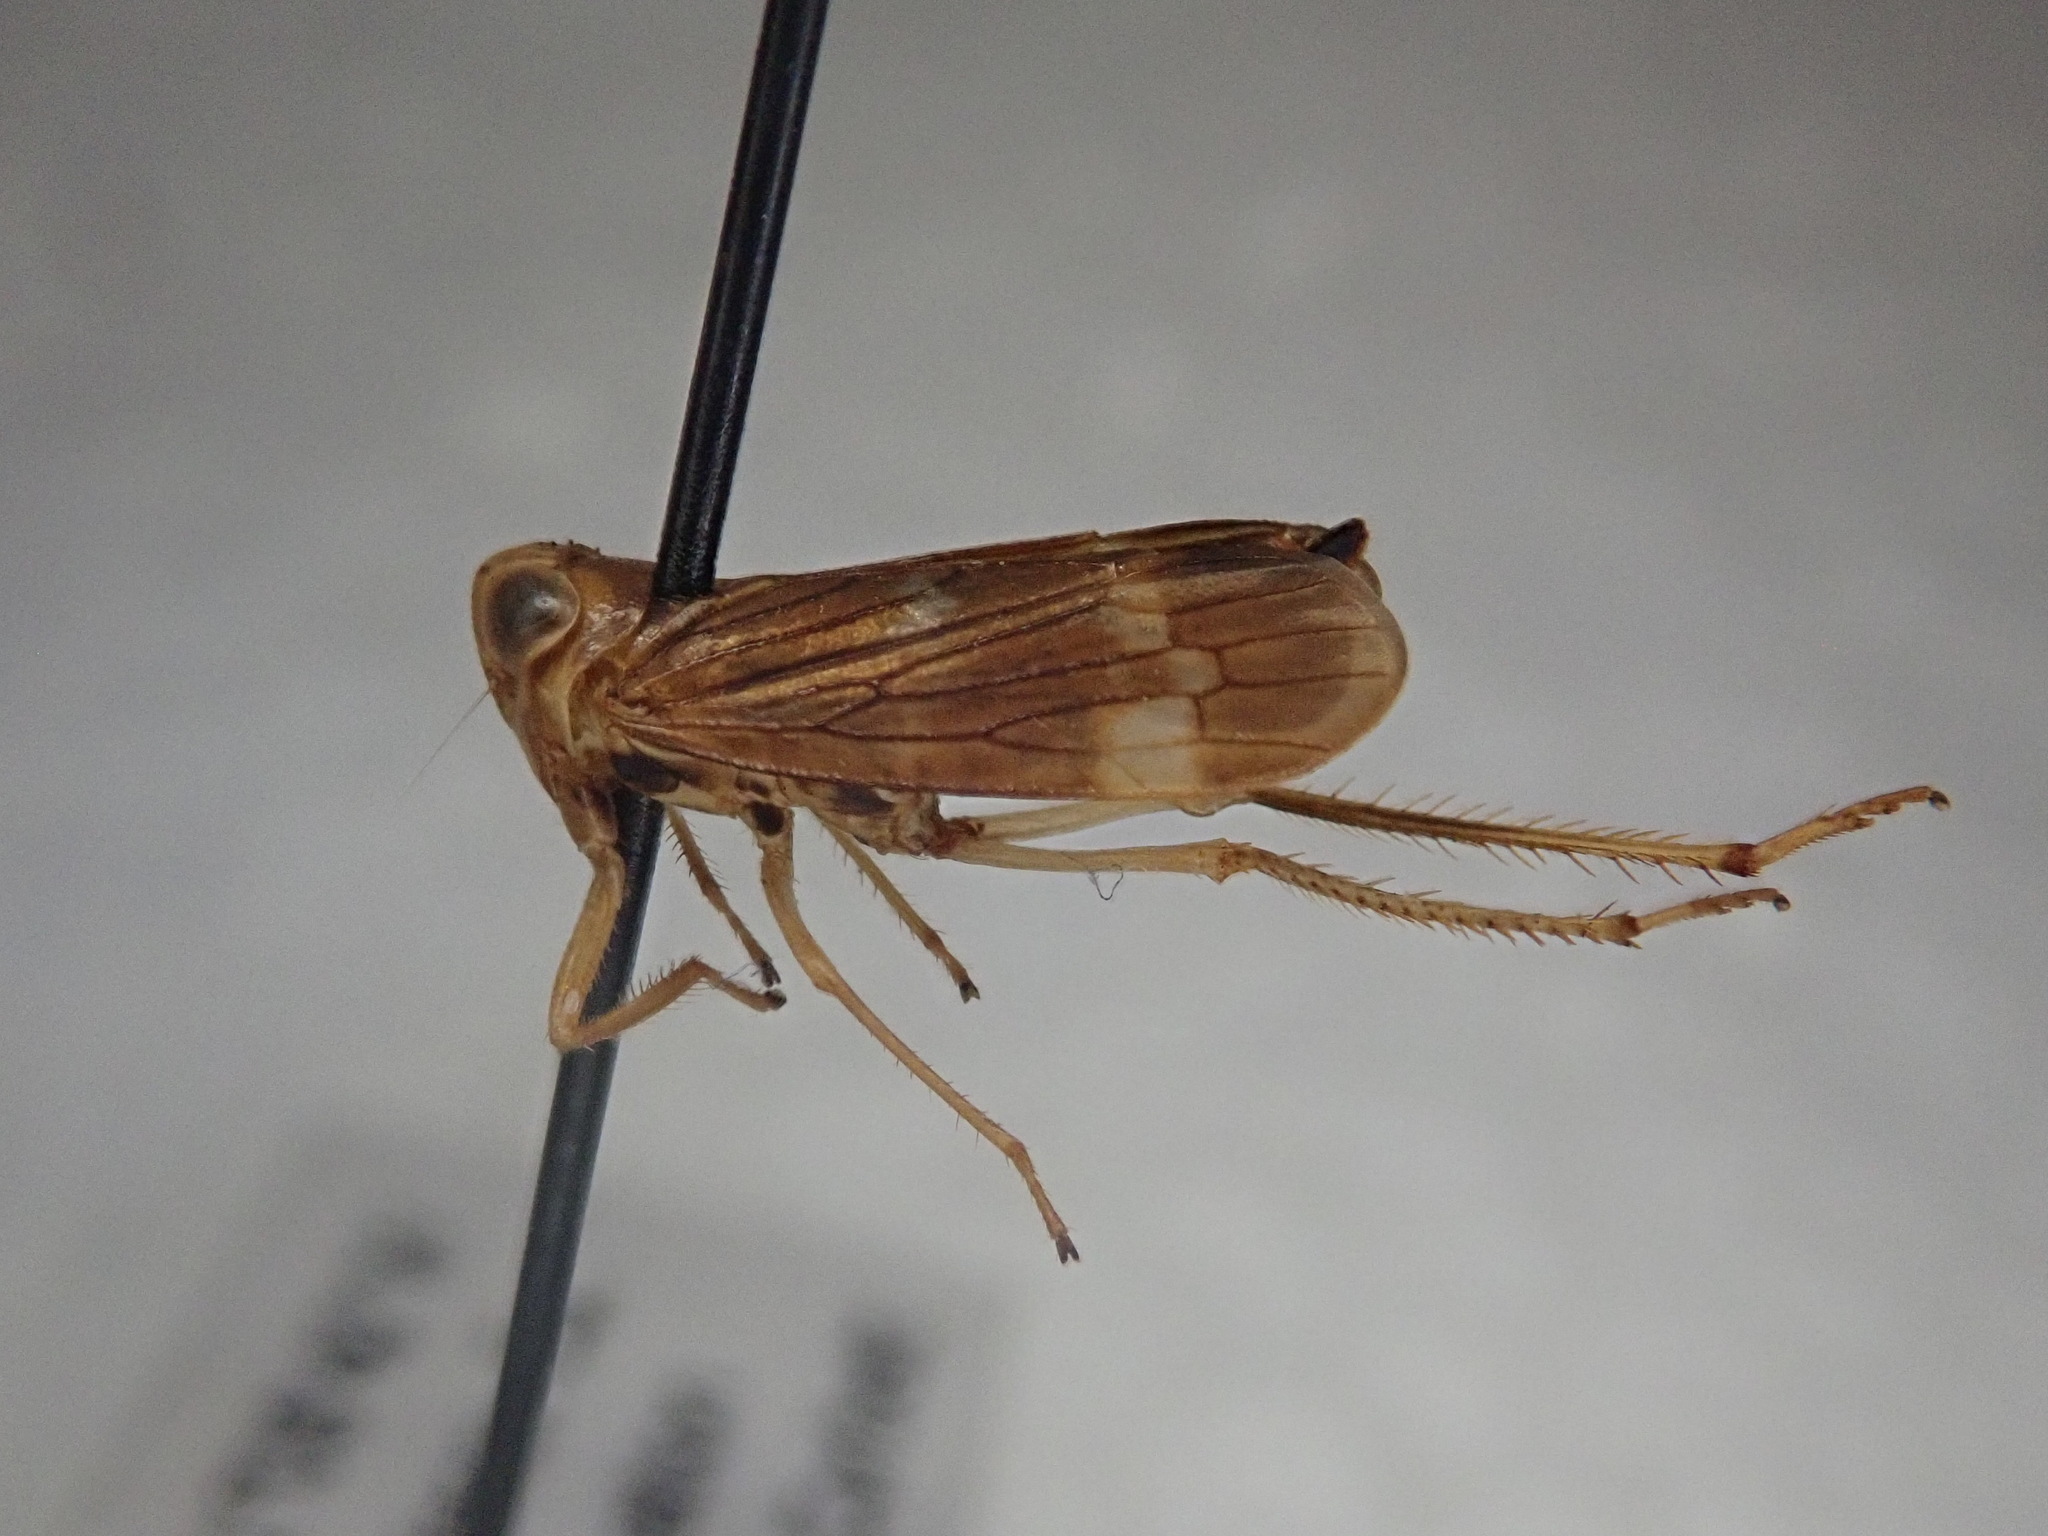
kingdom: Animalia
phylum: Arthropoda
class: Insecta
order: Hemiptera
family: Cicadellidae
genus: Jikradia
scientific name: Jikradia olitoria
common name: Coppery leafhopper
